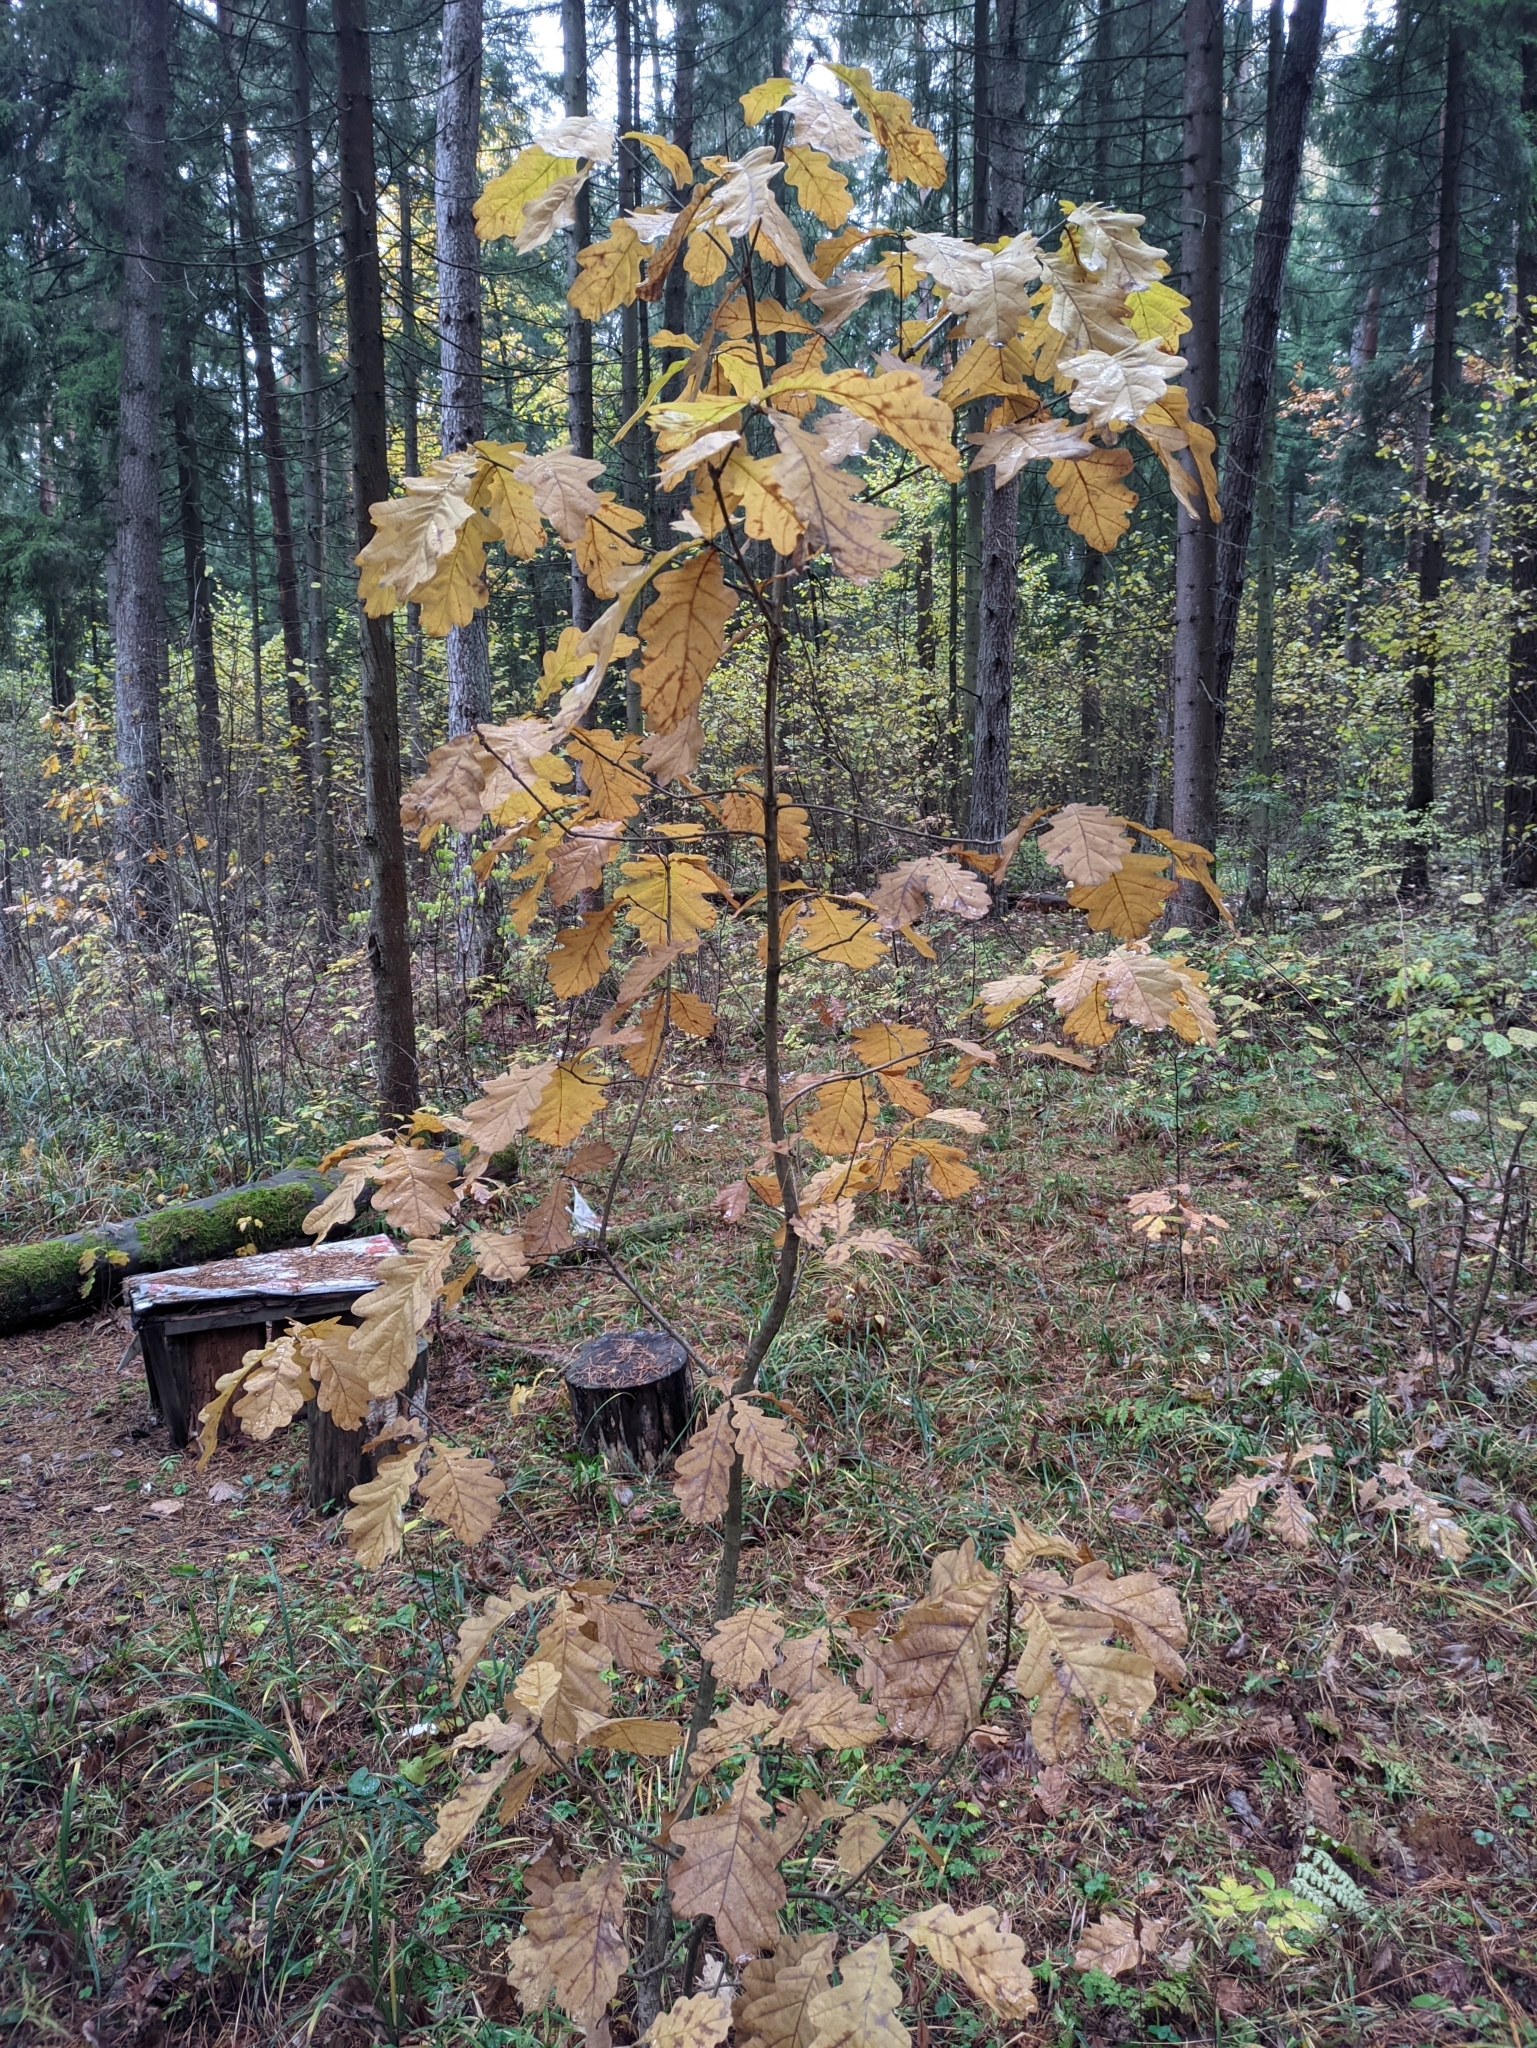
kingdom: Plantae
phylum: Tracheophyta
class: Magnoliopsida
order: Fagales
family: Fagaceae
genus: Quercus
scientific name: Quercus robur
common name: Pedunculate oak
